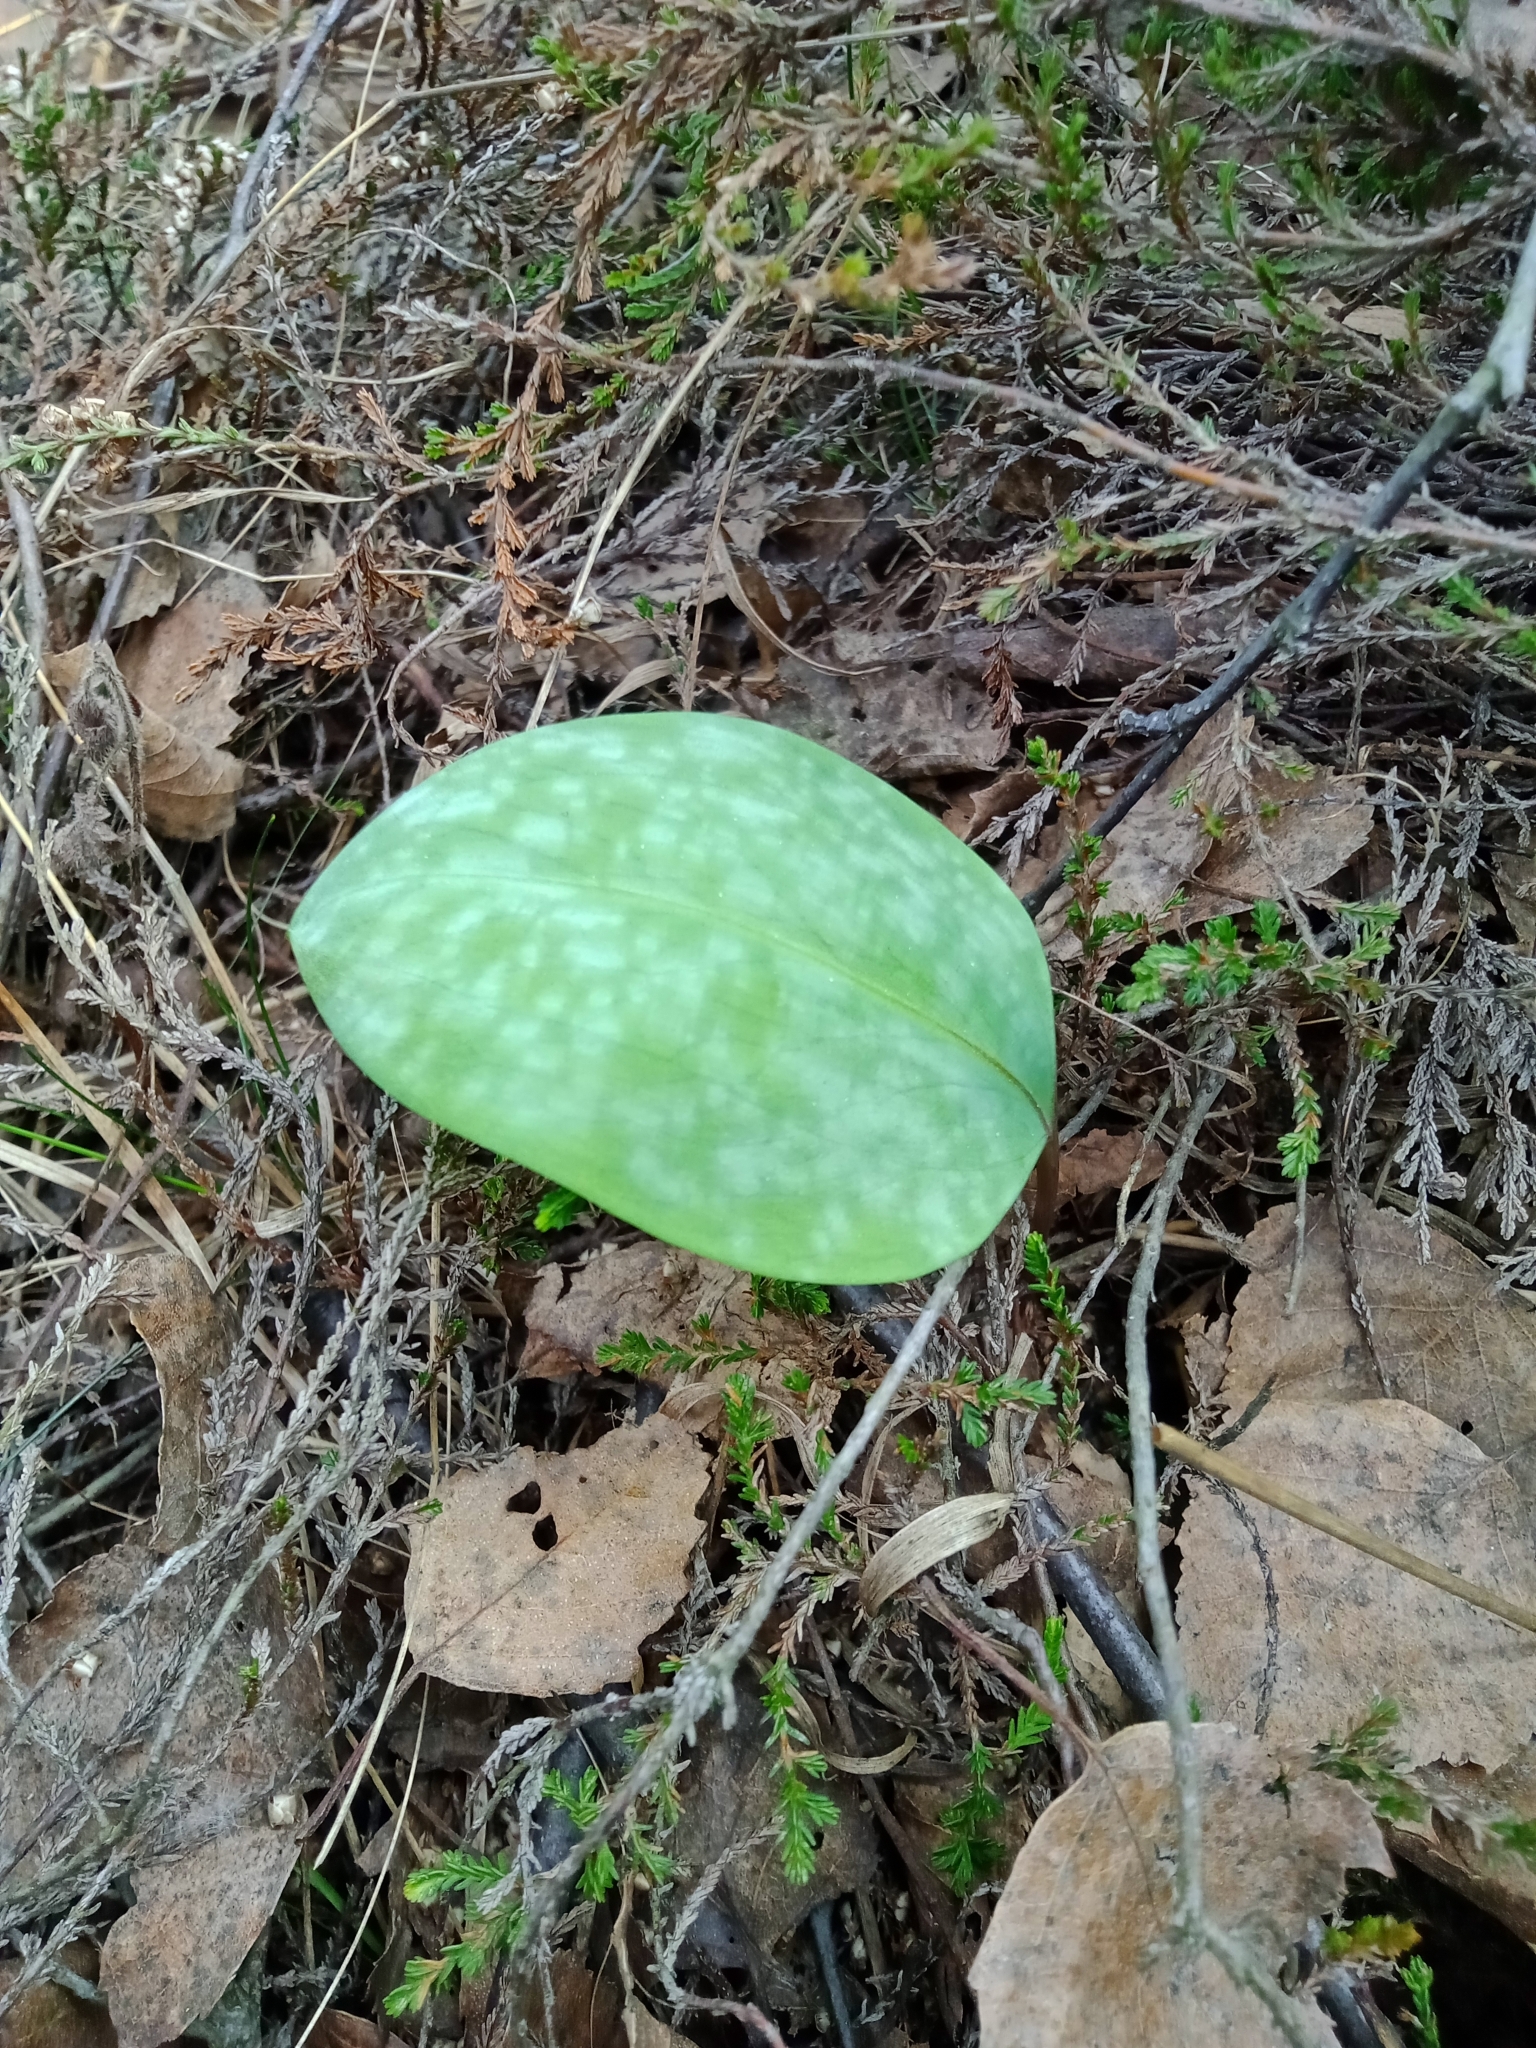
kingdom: Plantae
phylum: Tracheophyta
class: Liliopsida
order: Liliales
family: Liliaceae
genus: Erythronium
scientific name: Erythronium dens-canis
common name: Dog's-tooth-violet
